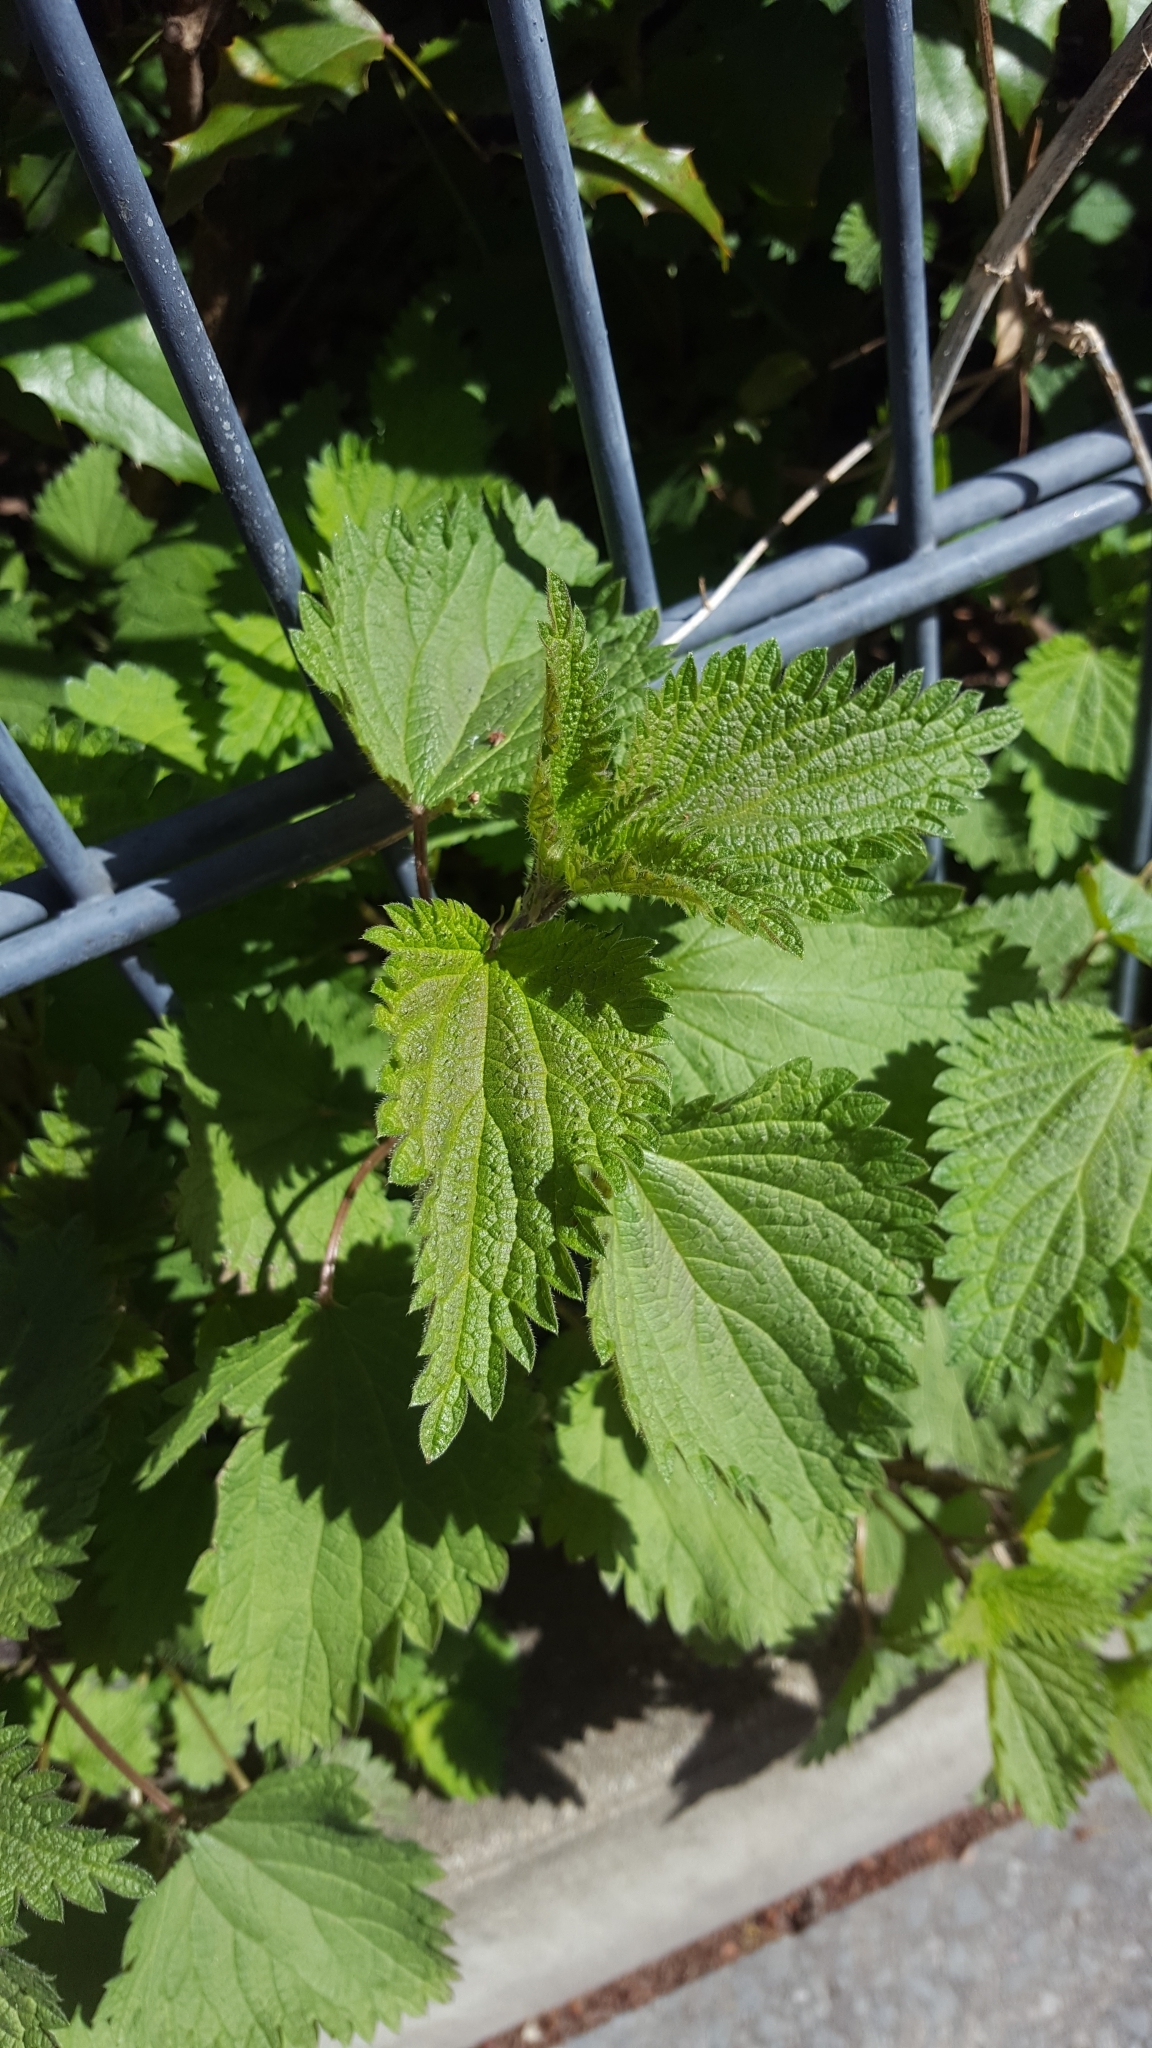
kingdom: Plantae
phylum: Tracheophyta
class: Magnoliopsida
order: Rosales
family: Urticaceae
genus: Urtica
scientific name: Urtica dioica
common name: Common nettle
